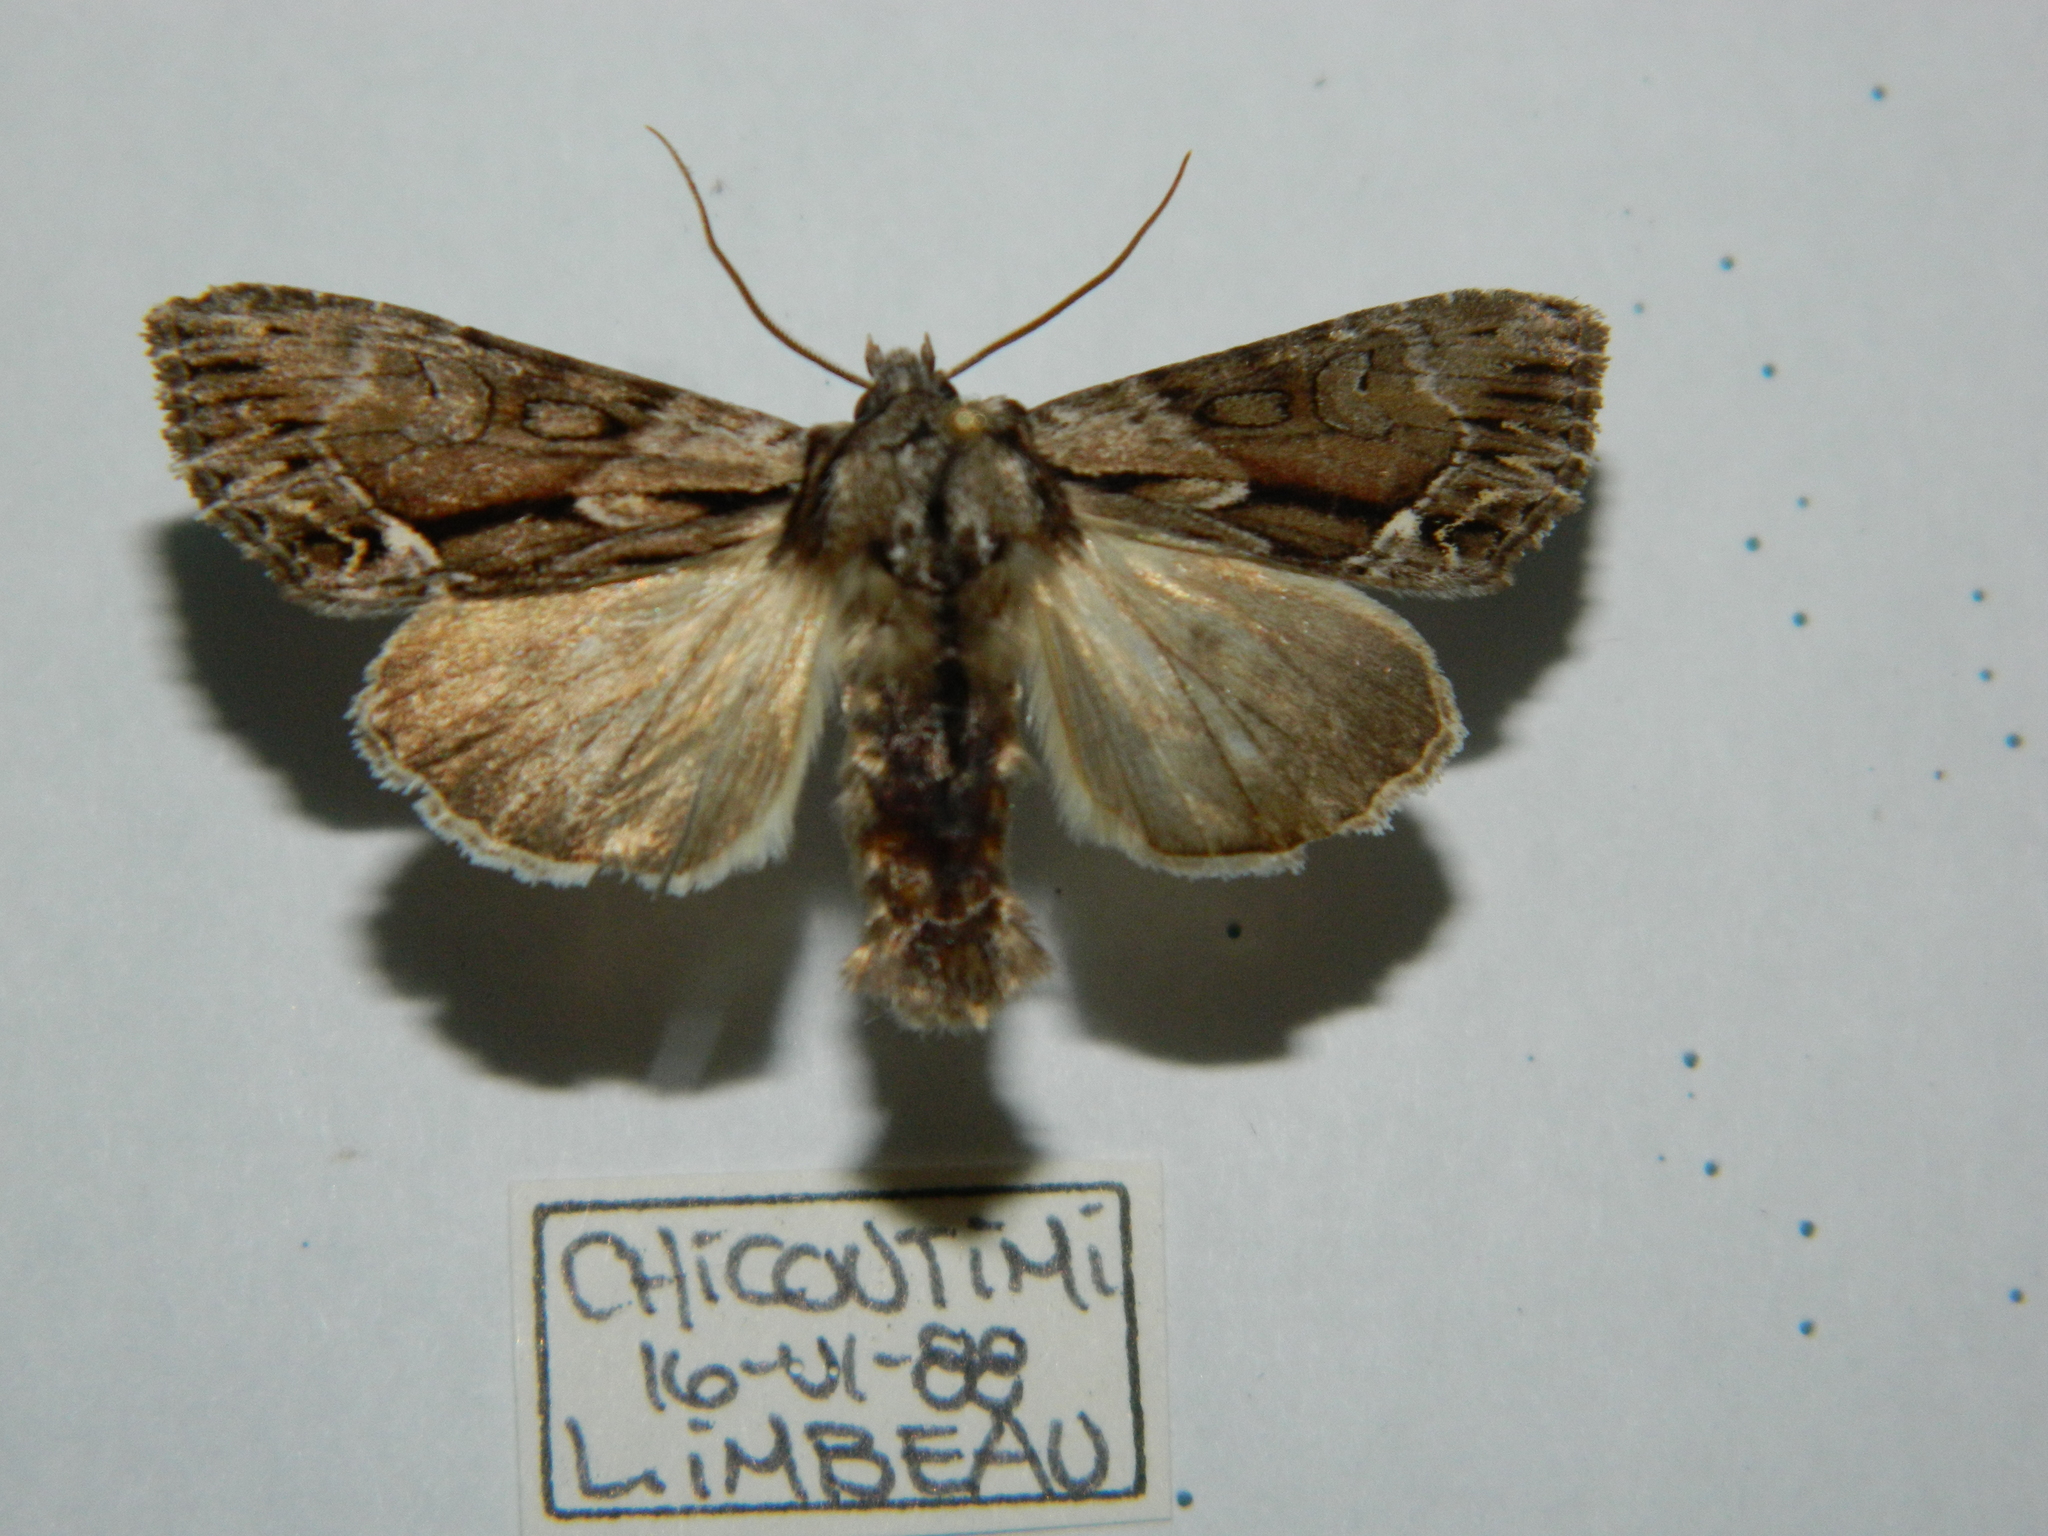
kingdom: Animalia
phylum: Arthropoda
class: Insecta
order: Lepidoptera
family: Noctuidae
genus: Hyppa
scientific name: Hyppa xylinoides
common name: Common hyppa moth
